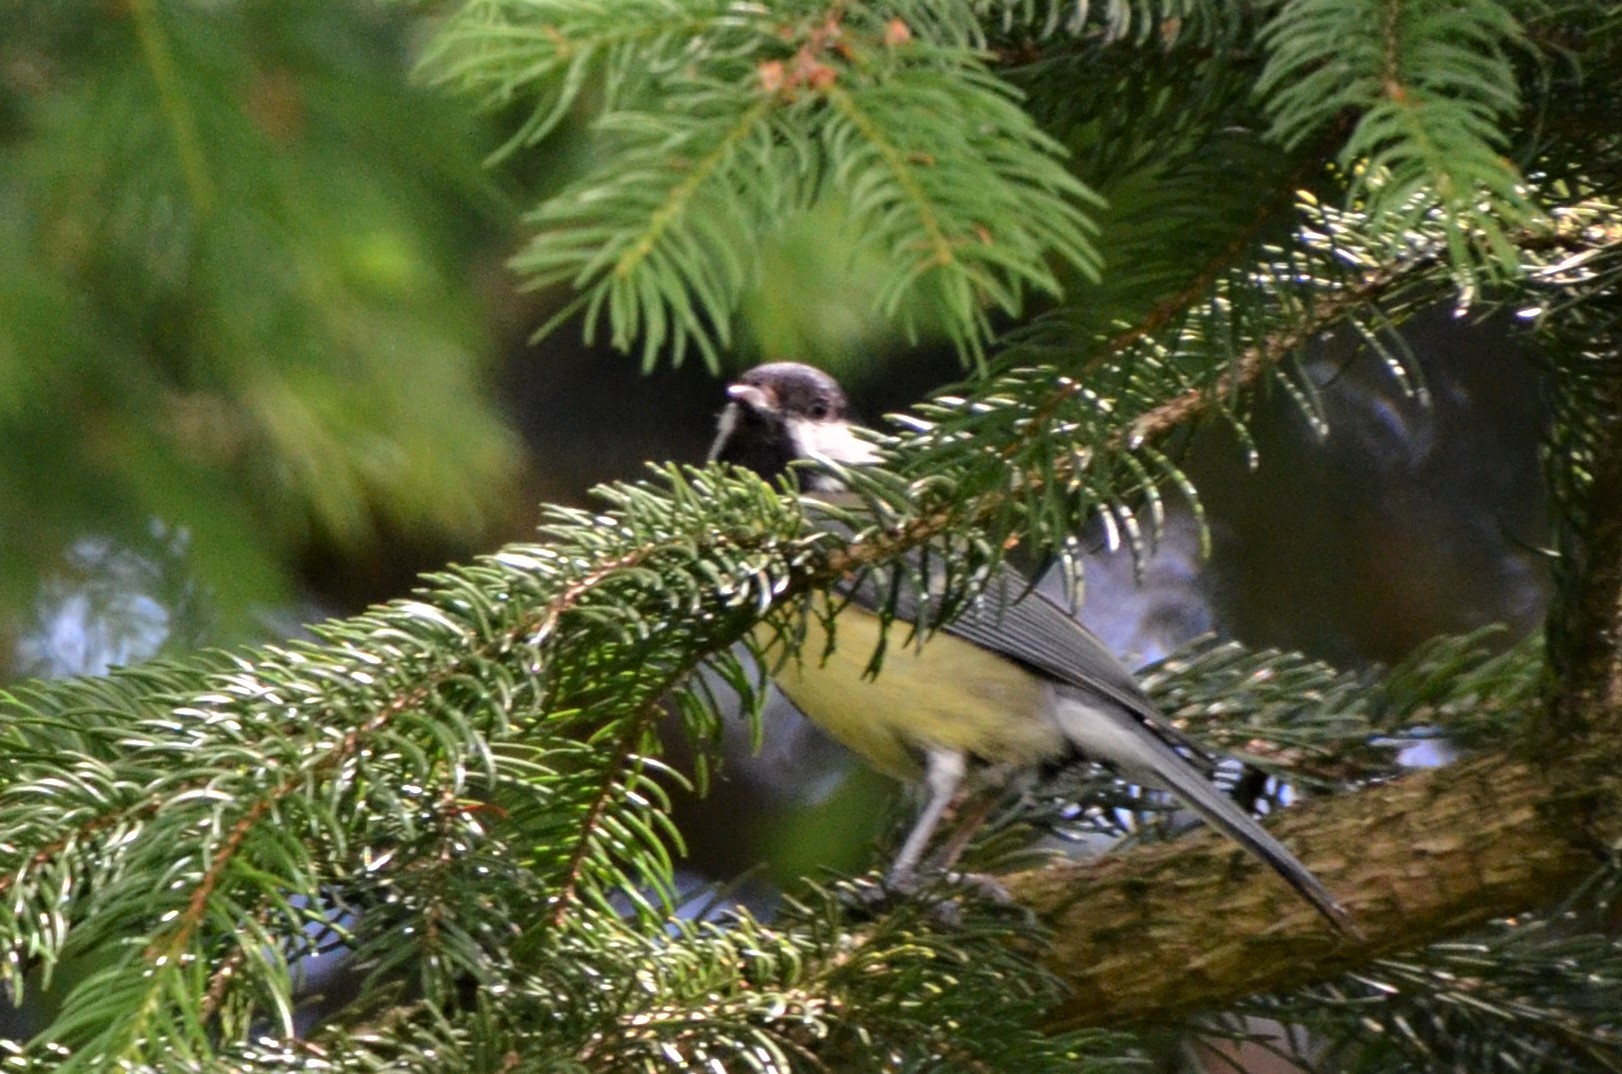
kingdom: Animalia
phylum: Chordata
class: Aves
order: Passeriformes
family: Paridae
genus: Parus
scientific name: Parus major
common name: Great tit
